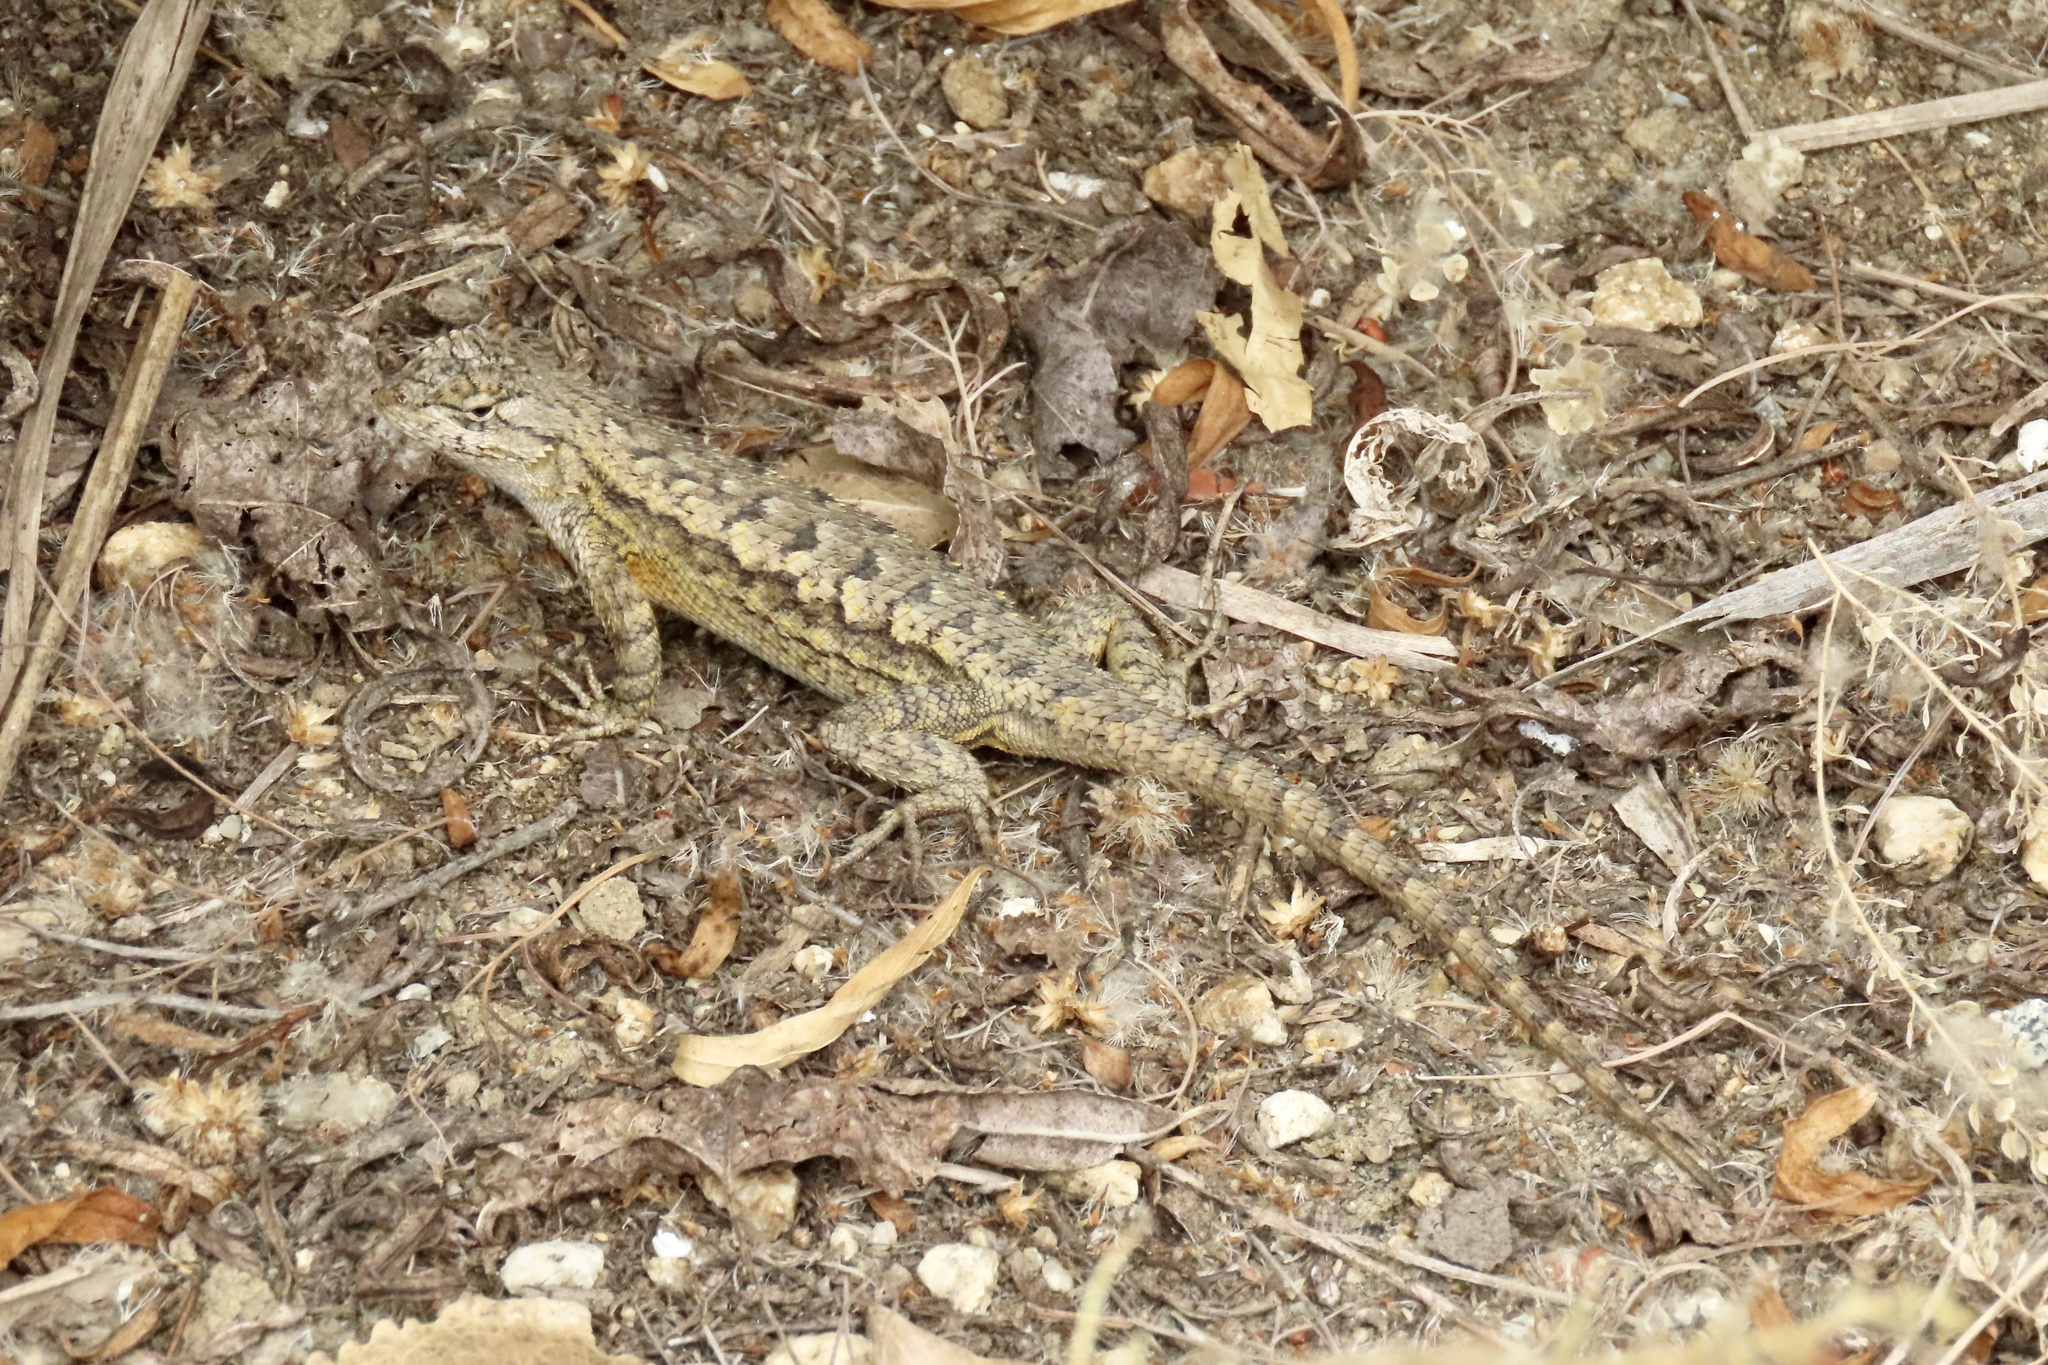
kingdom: Animalia
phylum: Chordata
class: Squamata
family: Phrynosomatidae
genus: Sceloporus
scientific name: Sceloporus occidentalis
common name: Western fence lizard
